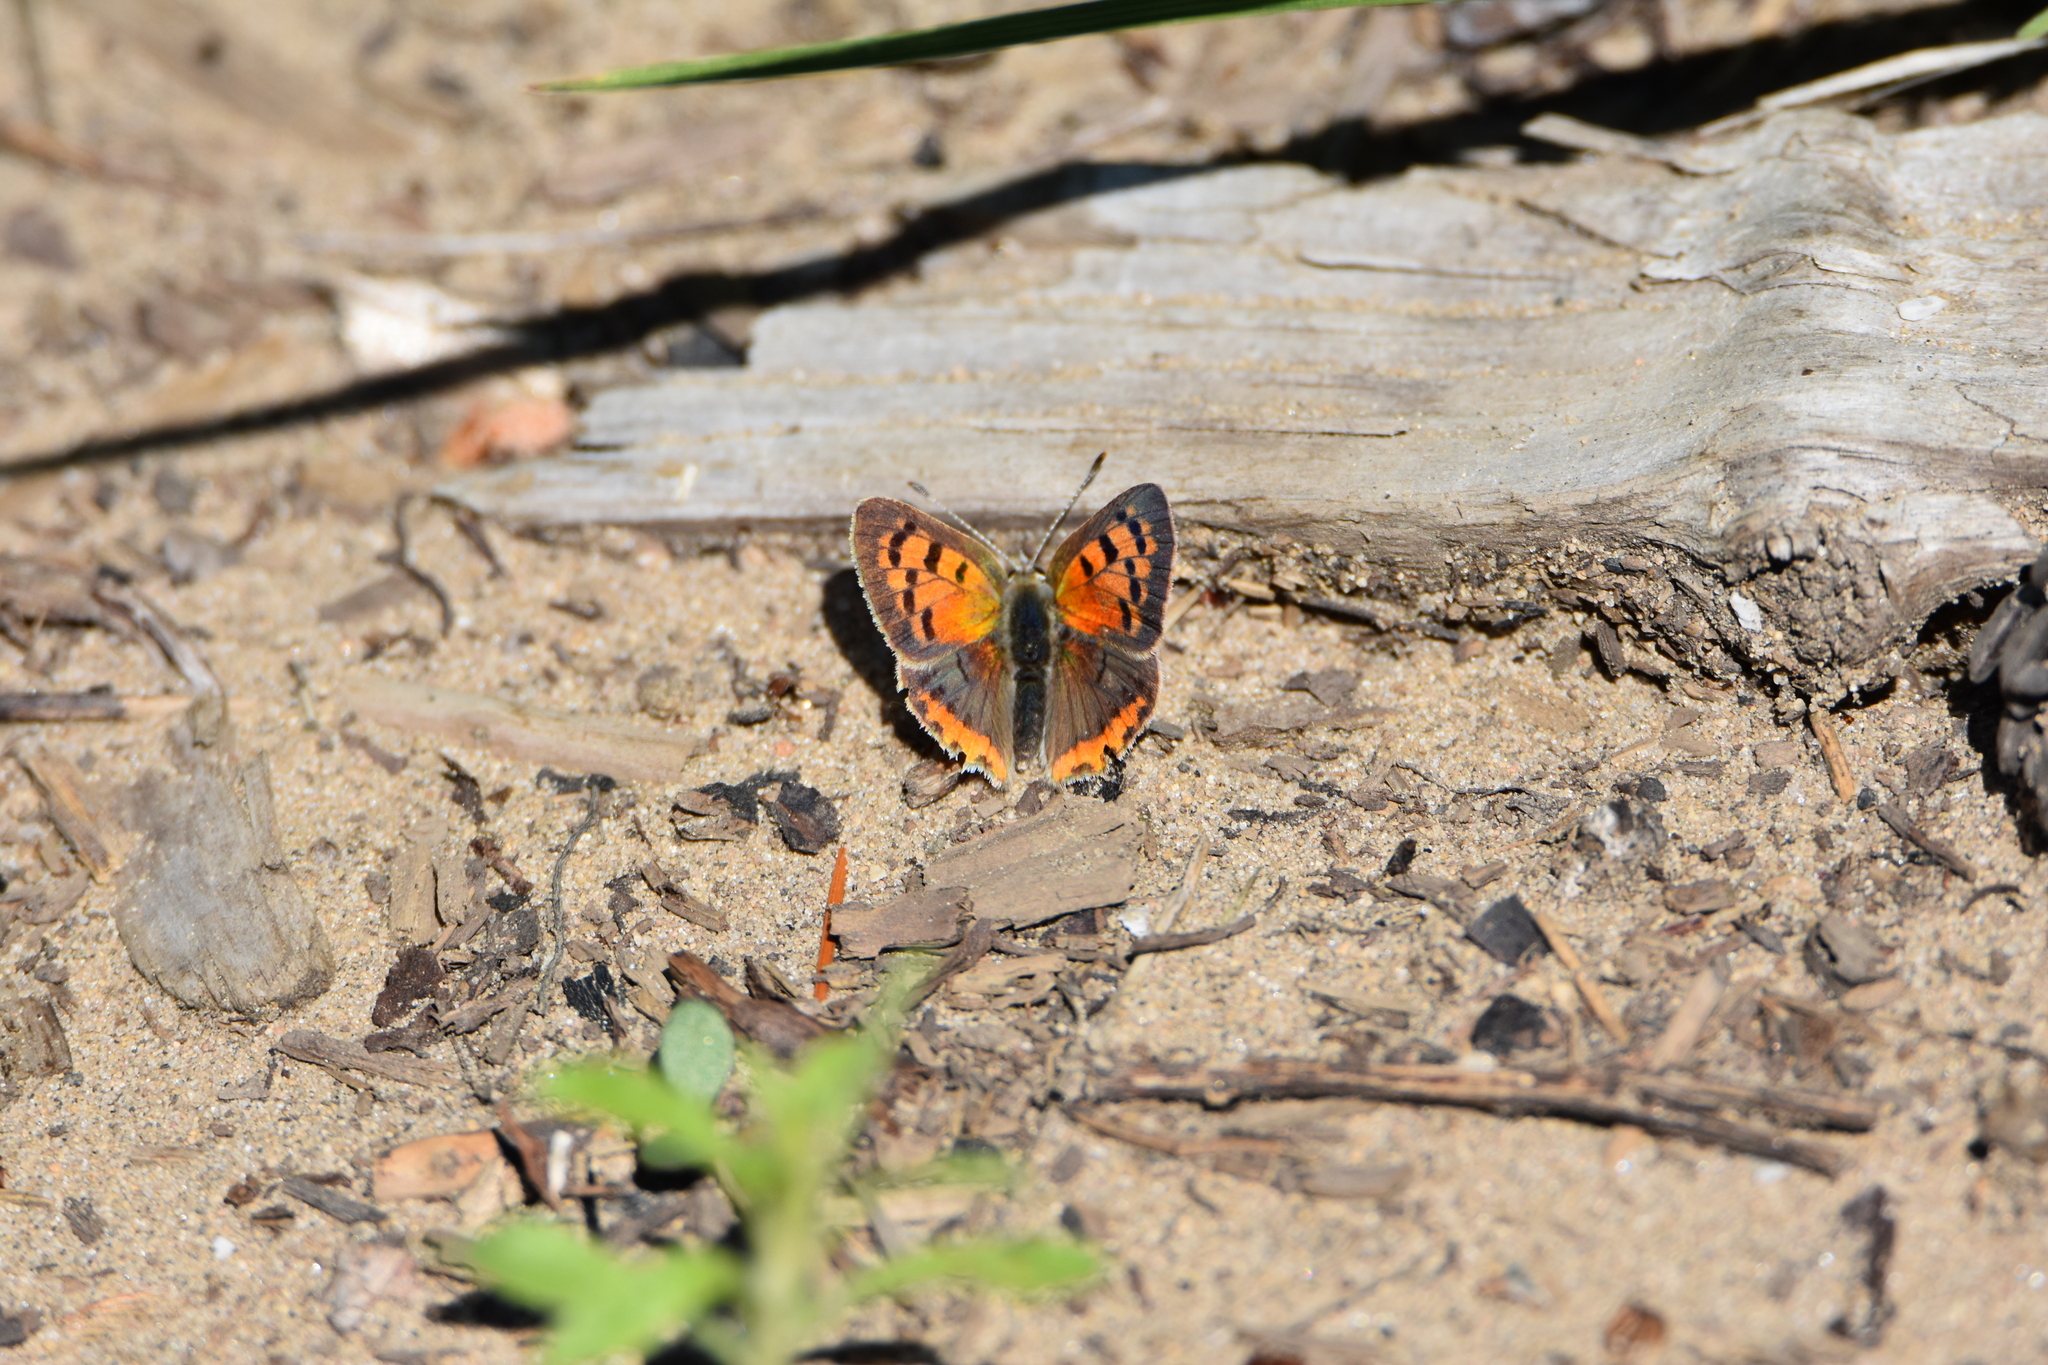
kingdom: Animalia
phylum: Arthropoda
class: Insecta
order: Lepidoptera
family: Lycaenidae
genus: Lycaena
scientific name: Lycaena hypophlaeas
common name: American copper
